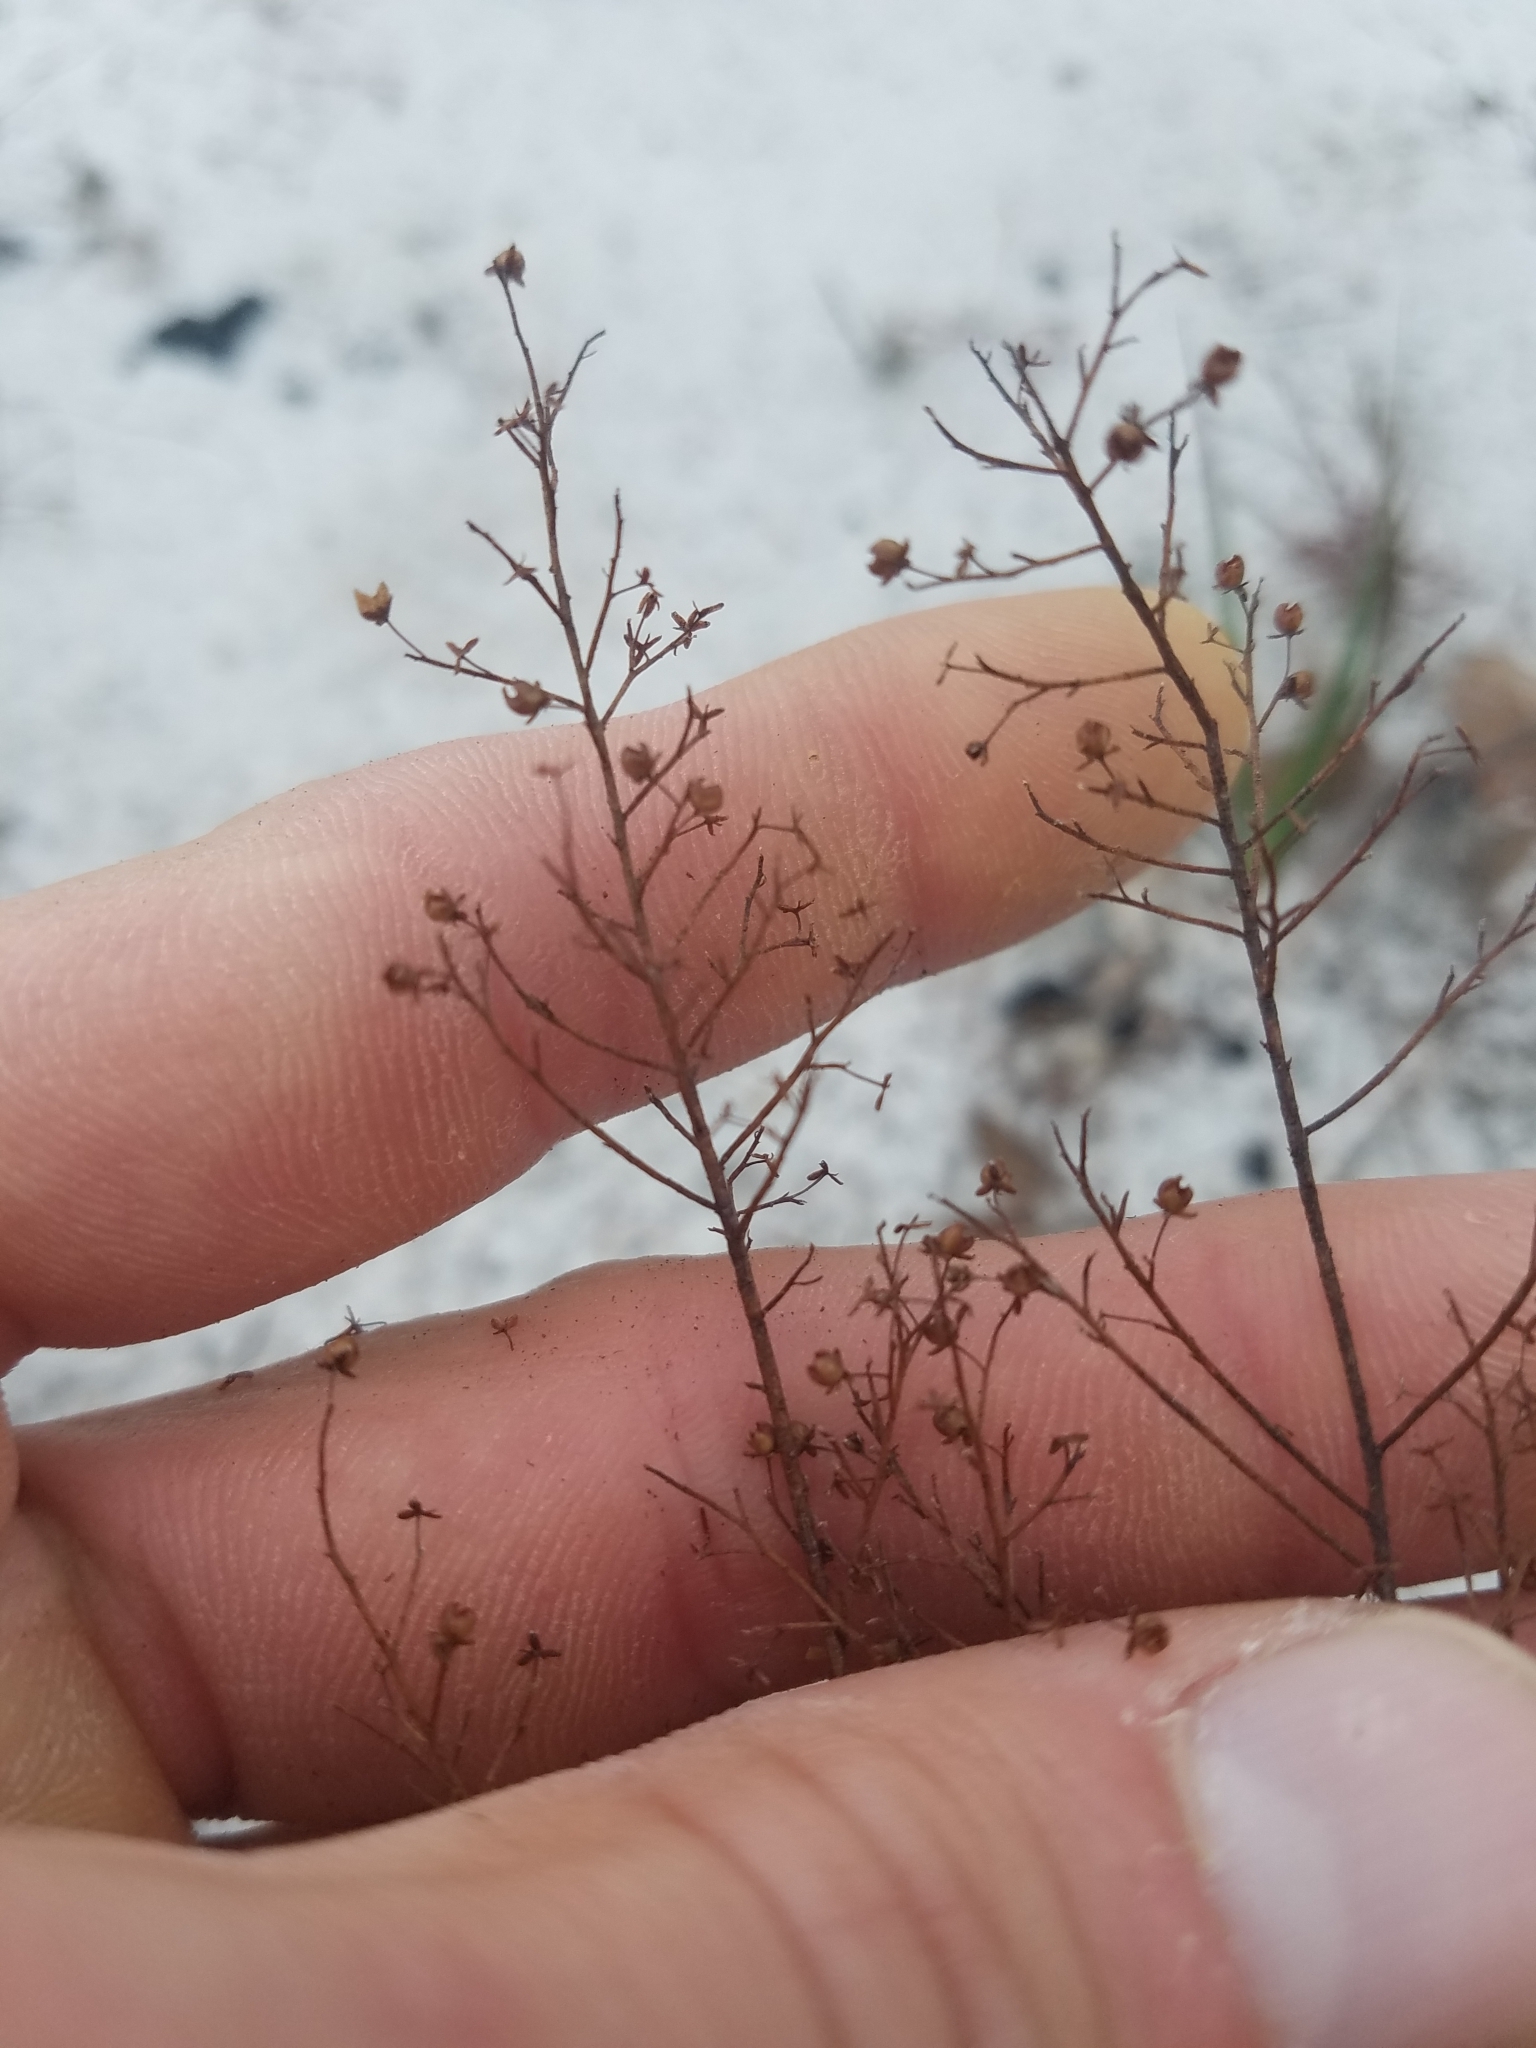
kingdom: Plantae
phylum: Tracheophyta
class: Magnoliopsida
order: Malvales
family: Cistaceae
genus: Lechea
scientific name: Lechea deckertii
